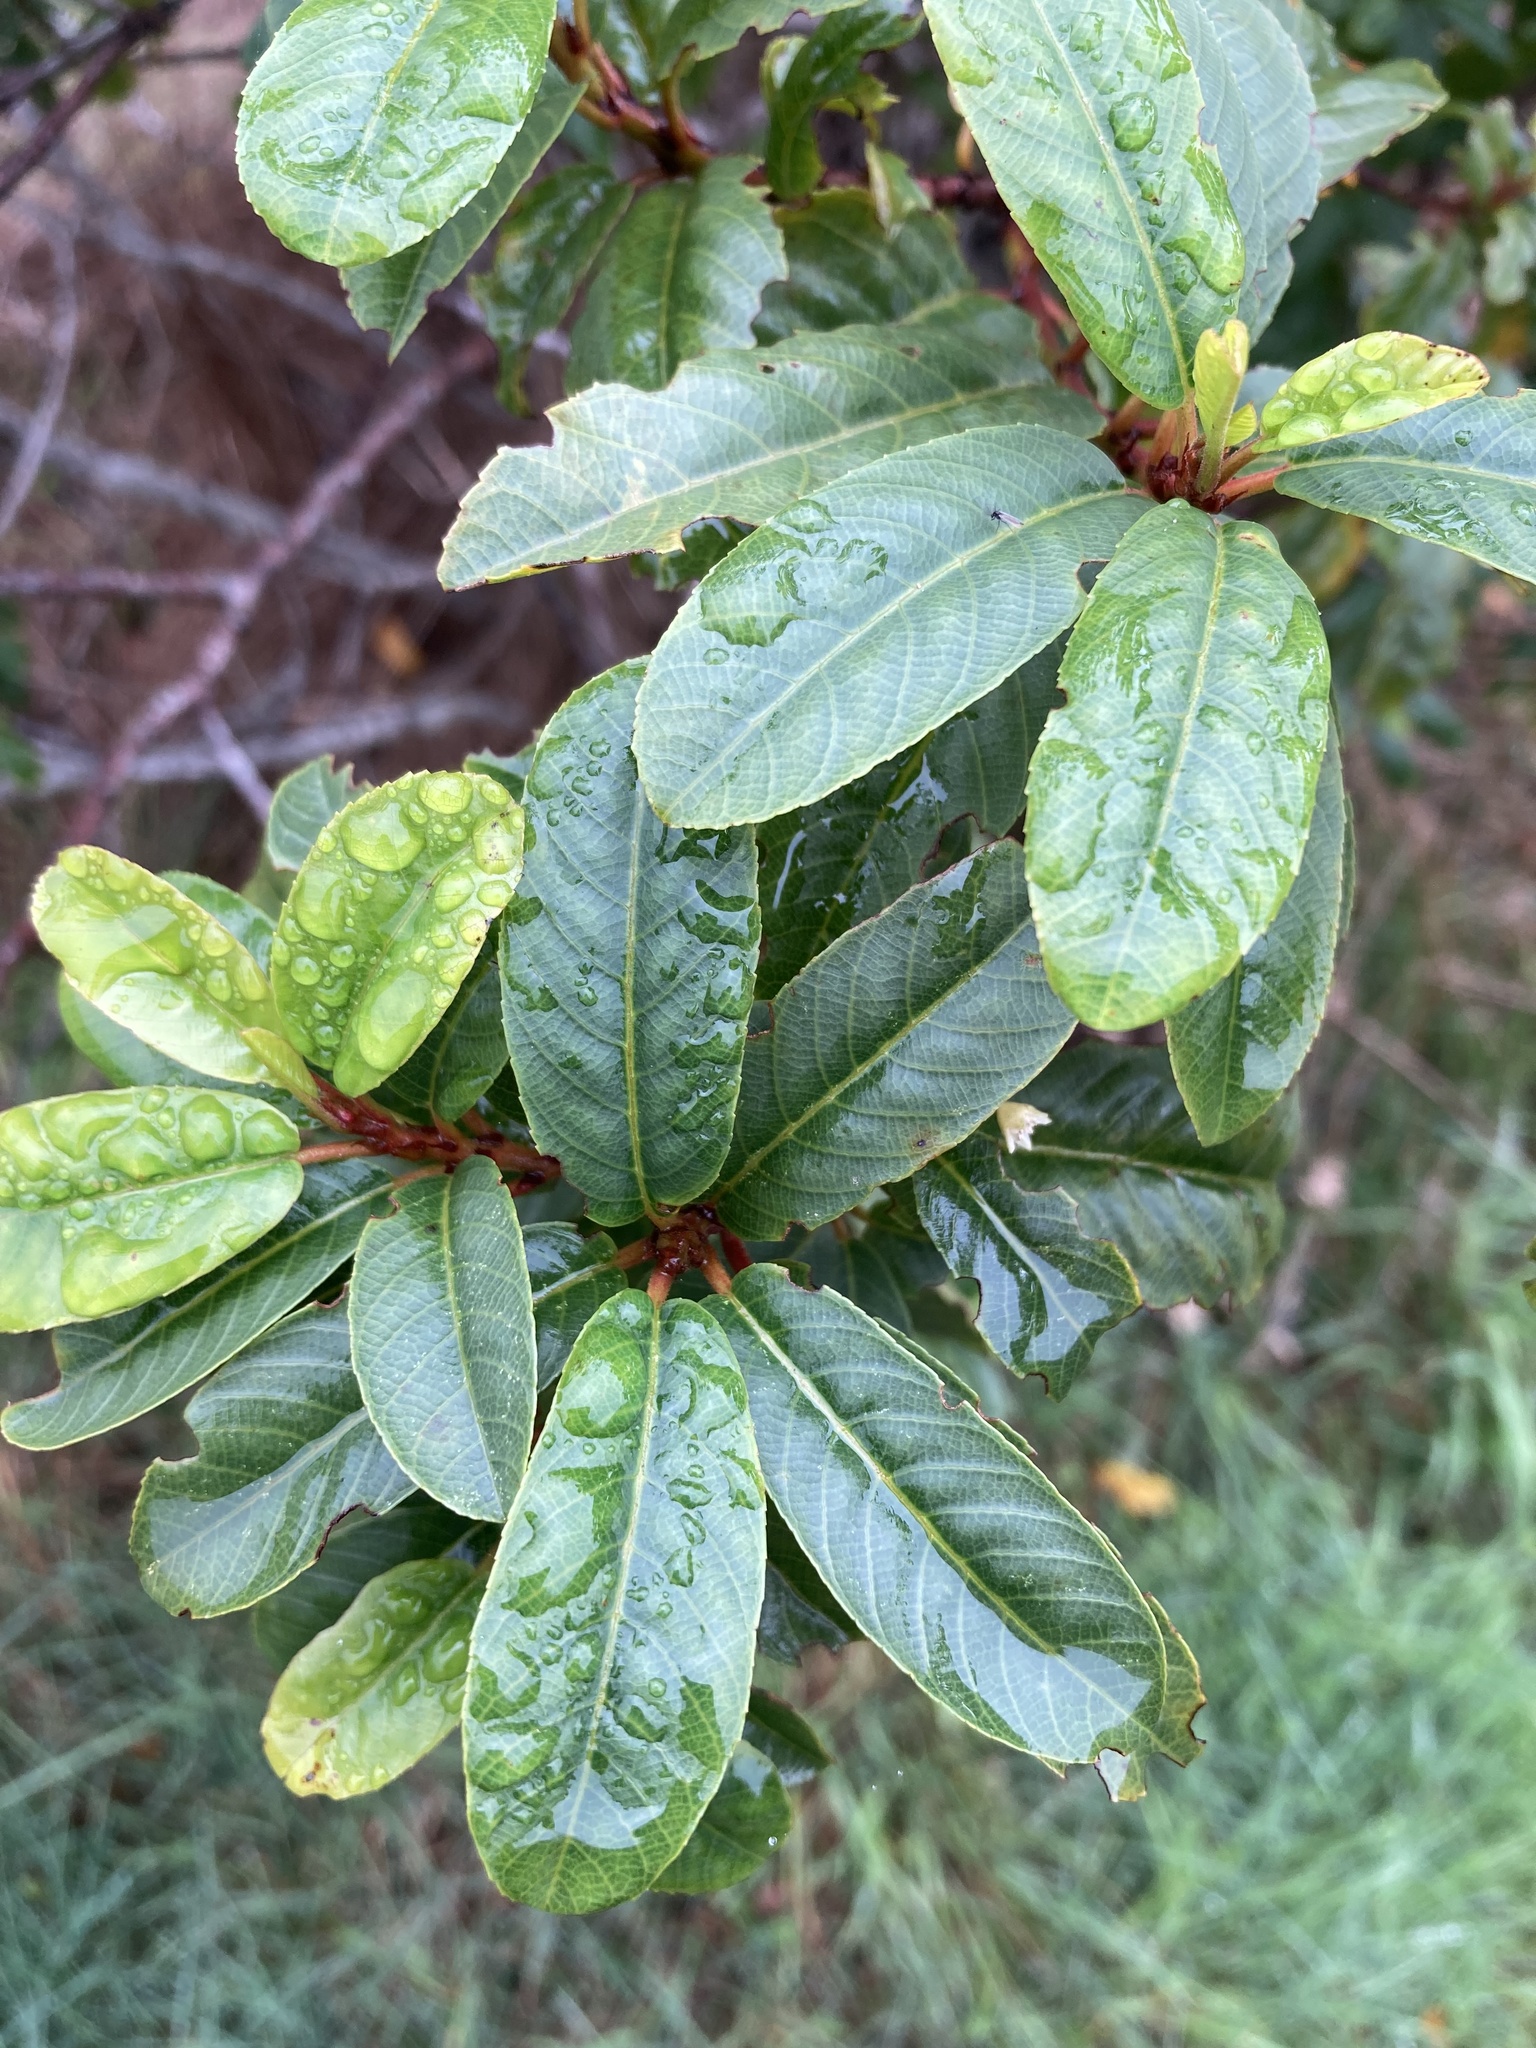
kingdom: Plantae
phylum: Tracheophyta
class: Magnoliopsida
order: Rosales
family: Rhamnaceae
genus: Frangula
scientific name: Frangula californica
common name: California buckthorn
